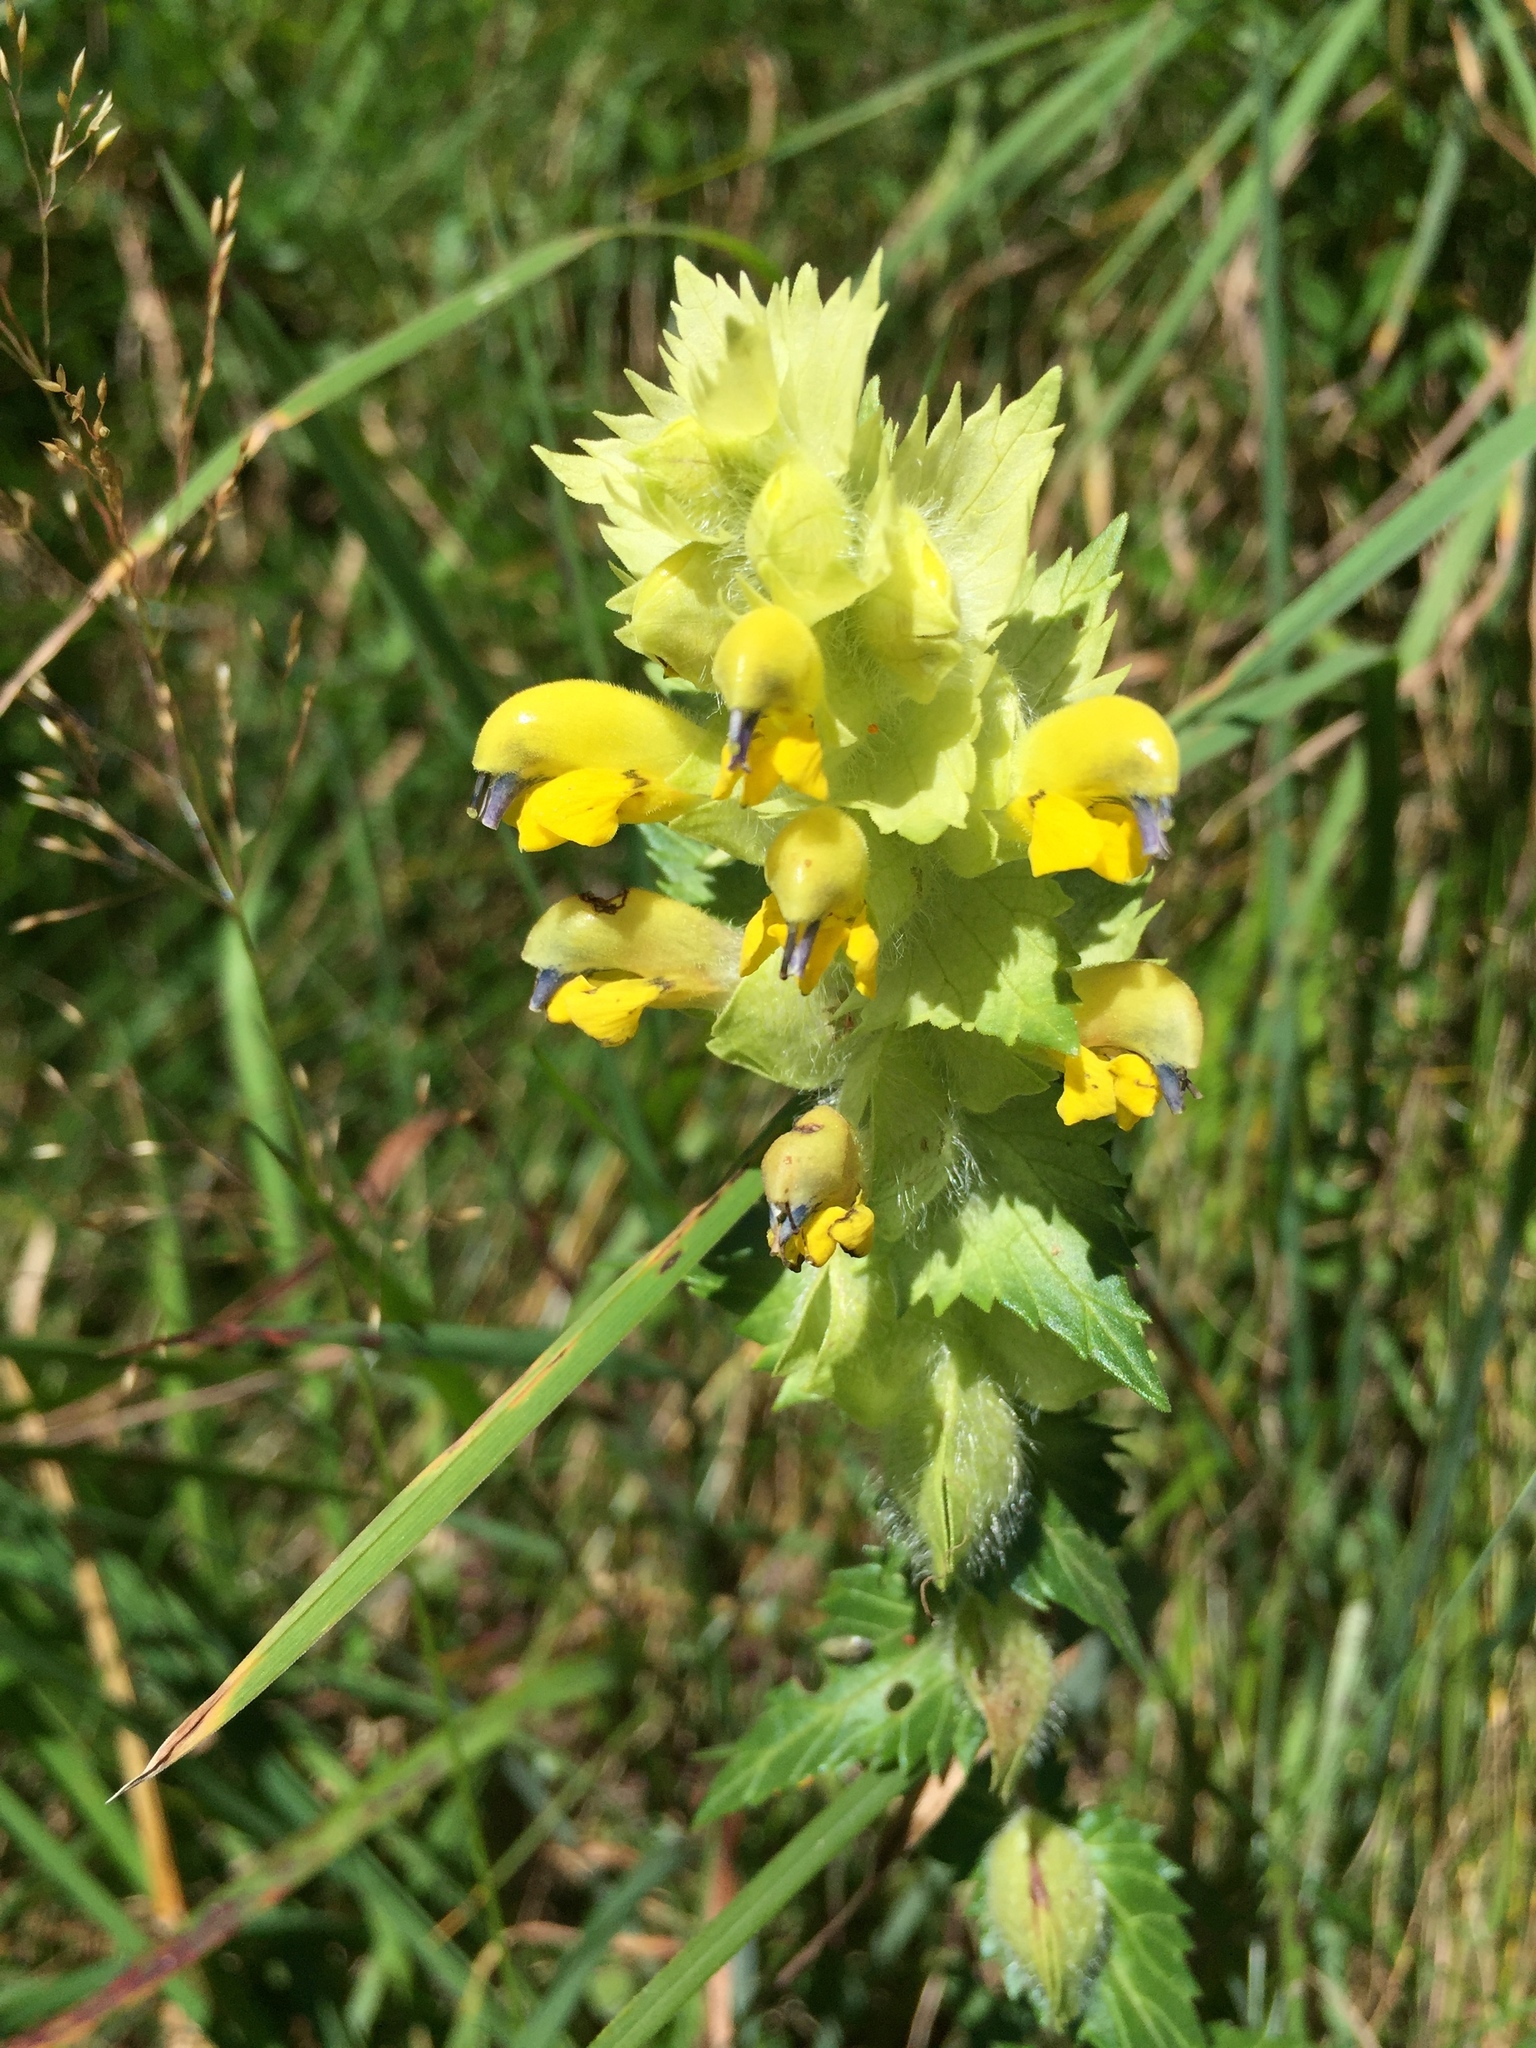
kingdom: Plantae
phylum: Tracheophyta
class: Magnoliopsida
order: Lamiales
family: Orobanchaceae
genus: Rhinanthus
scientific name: Rhinanthus alectorolophus
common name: Greater yellow-rattle
